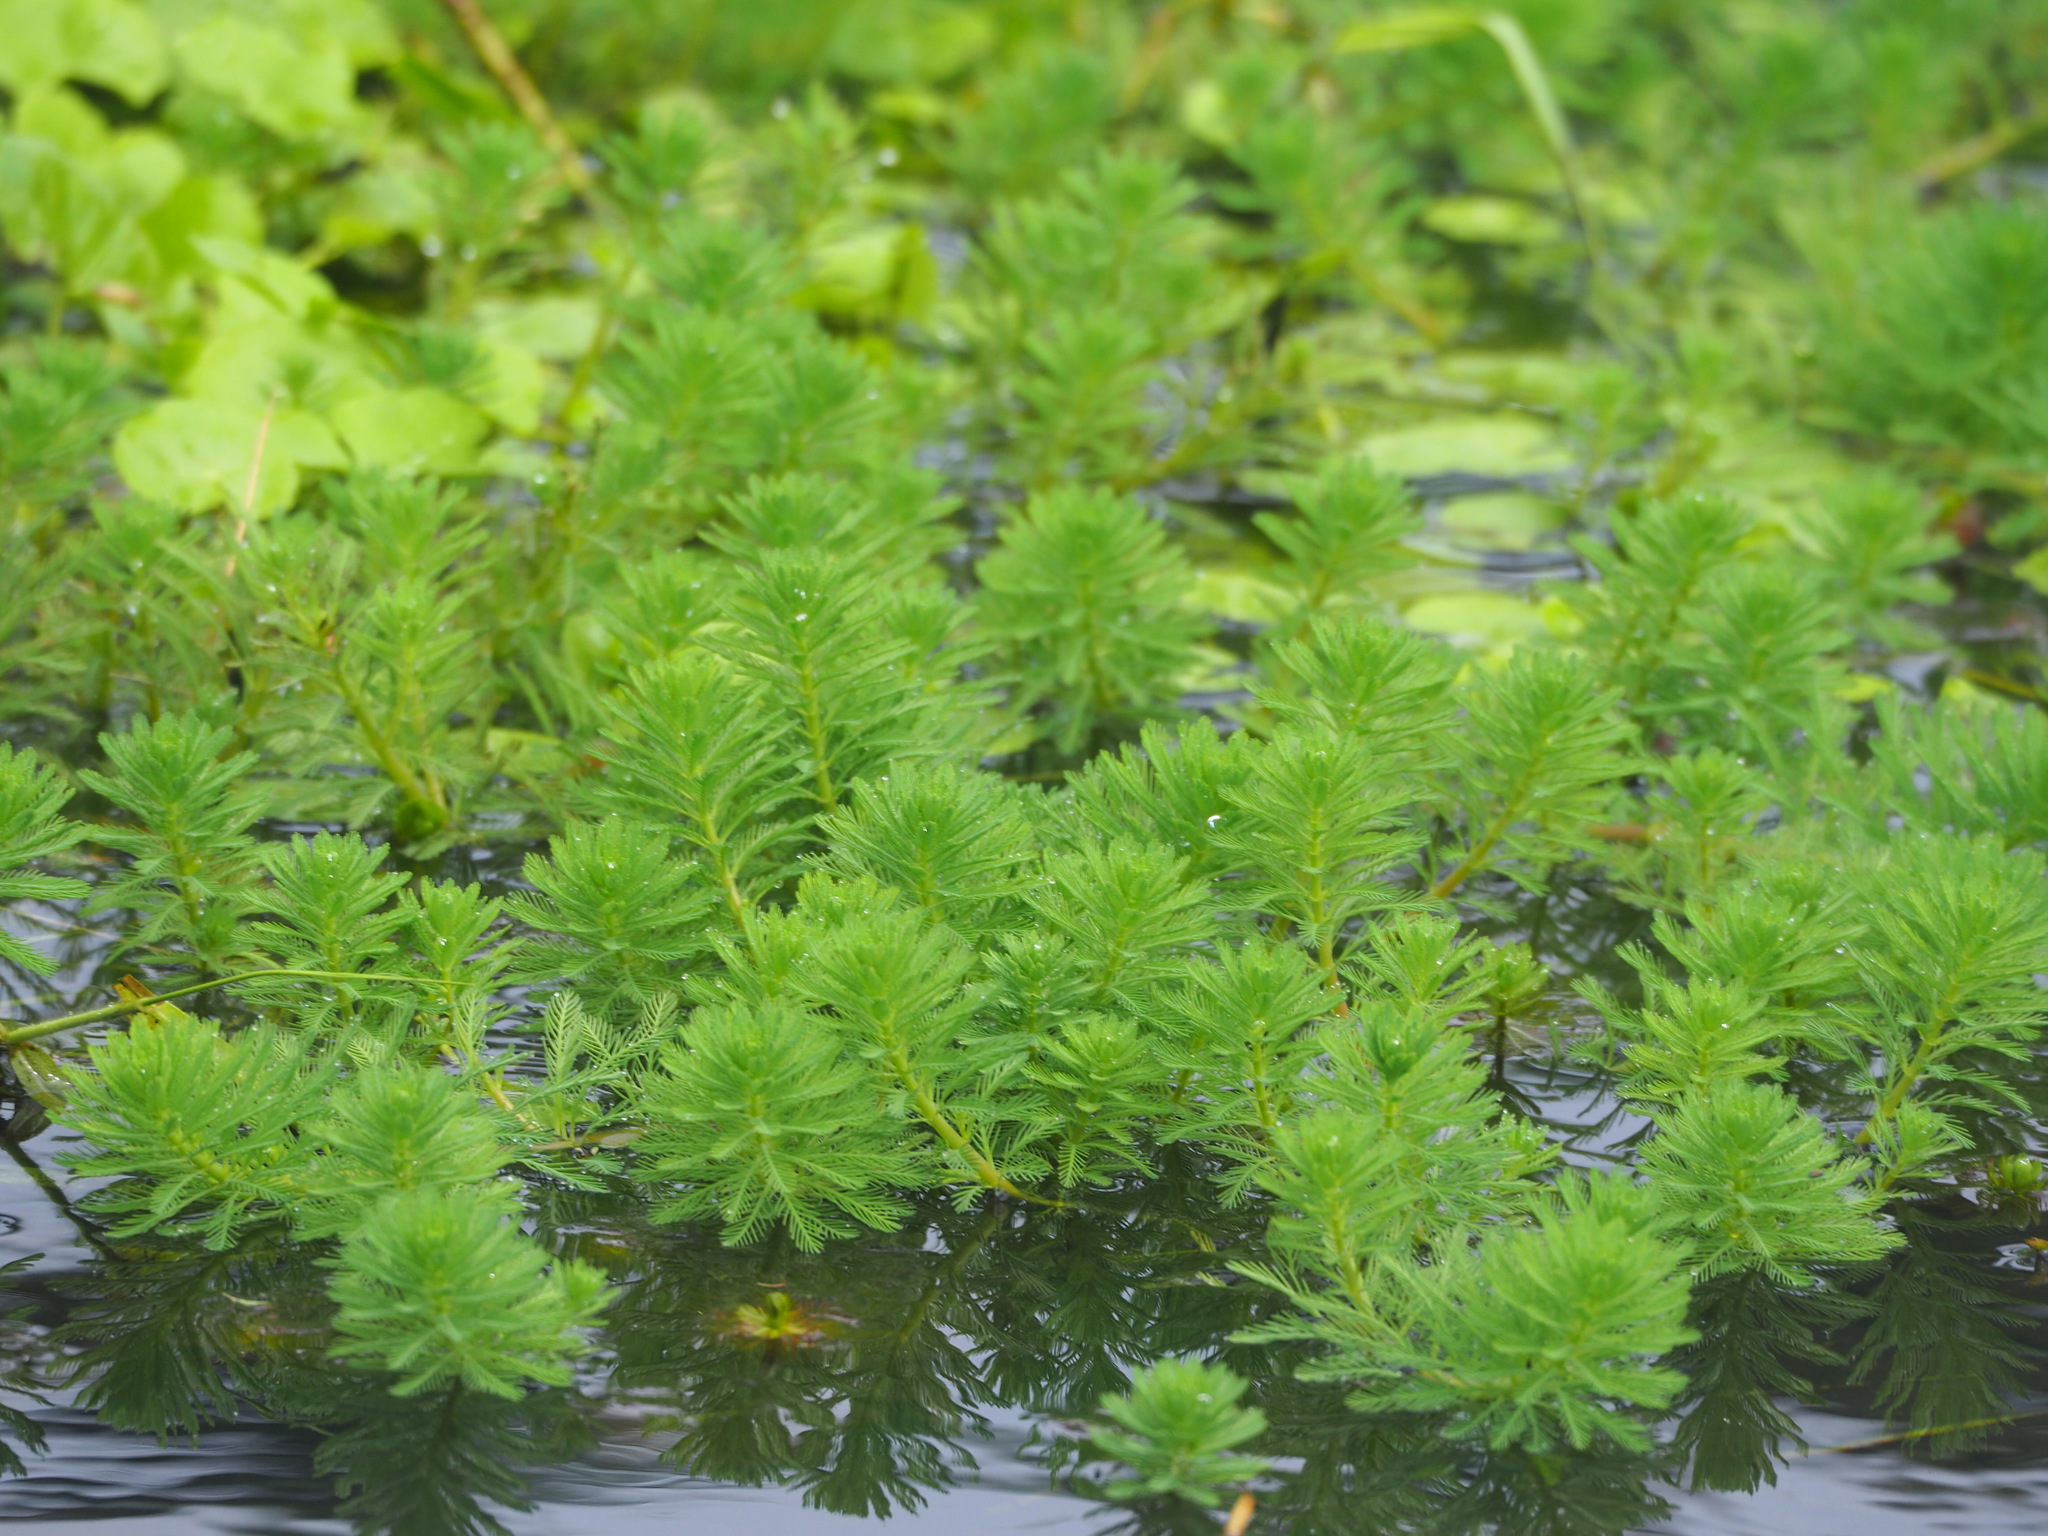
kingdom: Plantae
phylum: Tracheophyta
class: Magnoliopsida
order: Saxifragales
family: Haloragaceae
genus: Myriophyllum
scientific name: Myriophyllum aquaticum
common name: Parrot's feather
